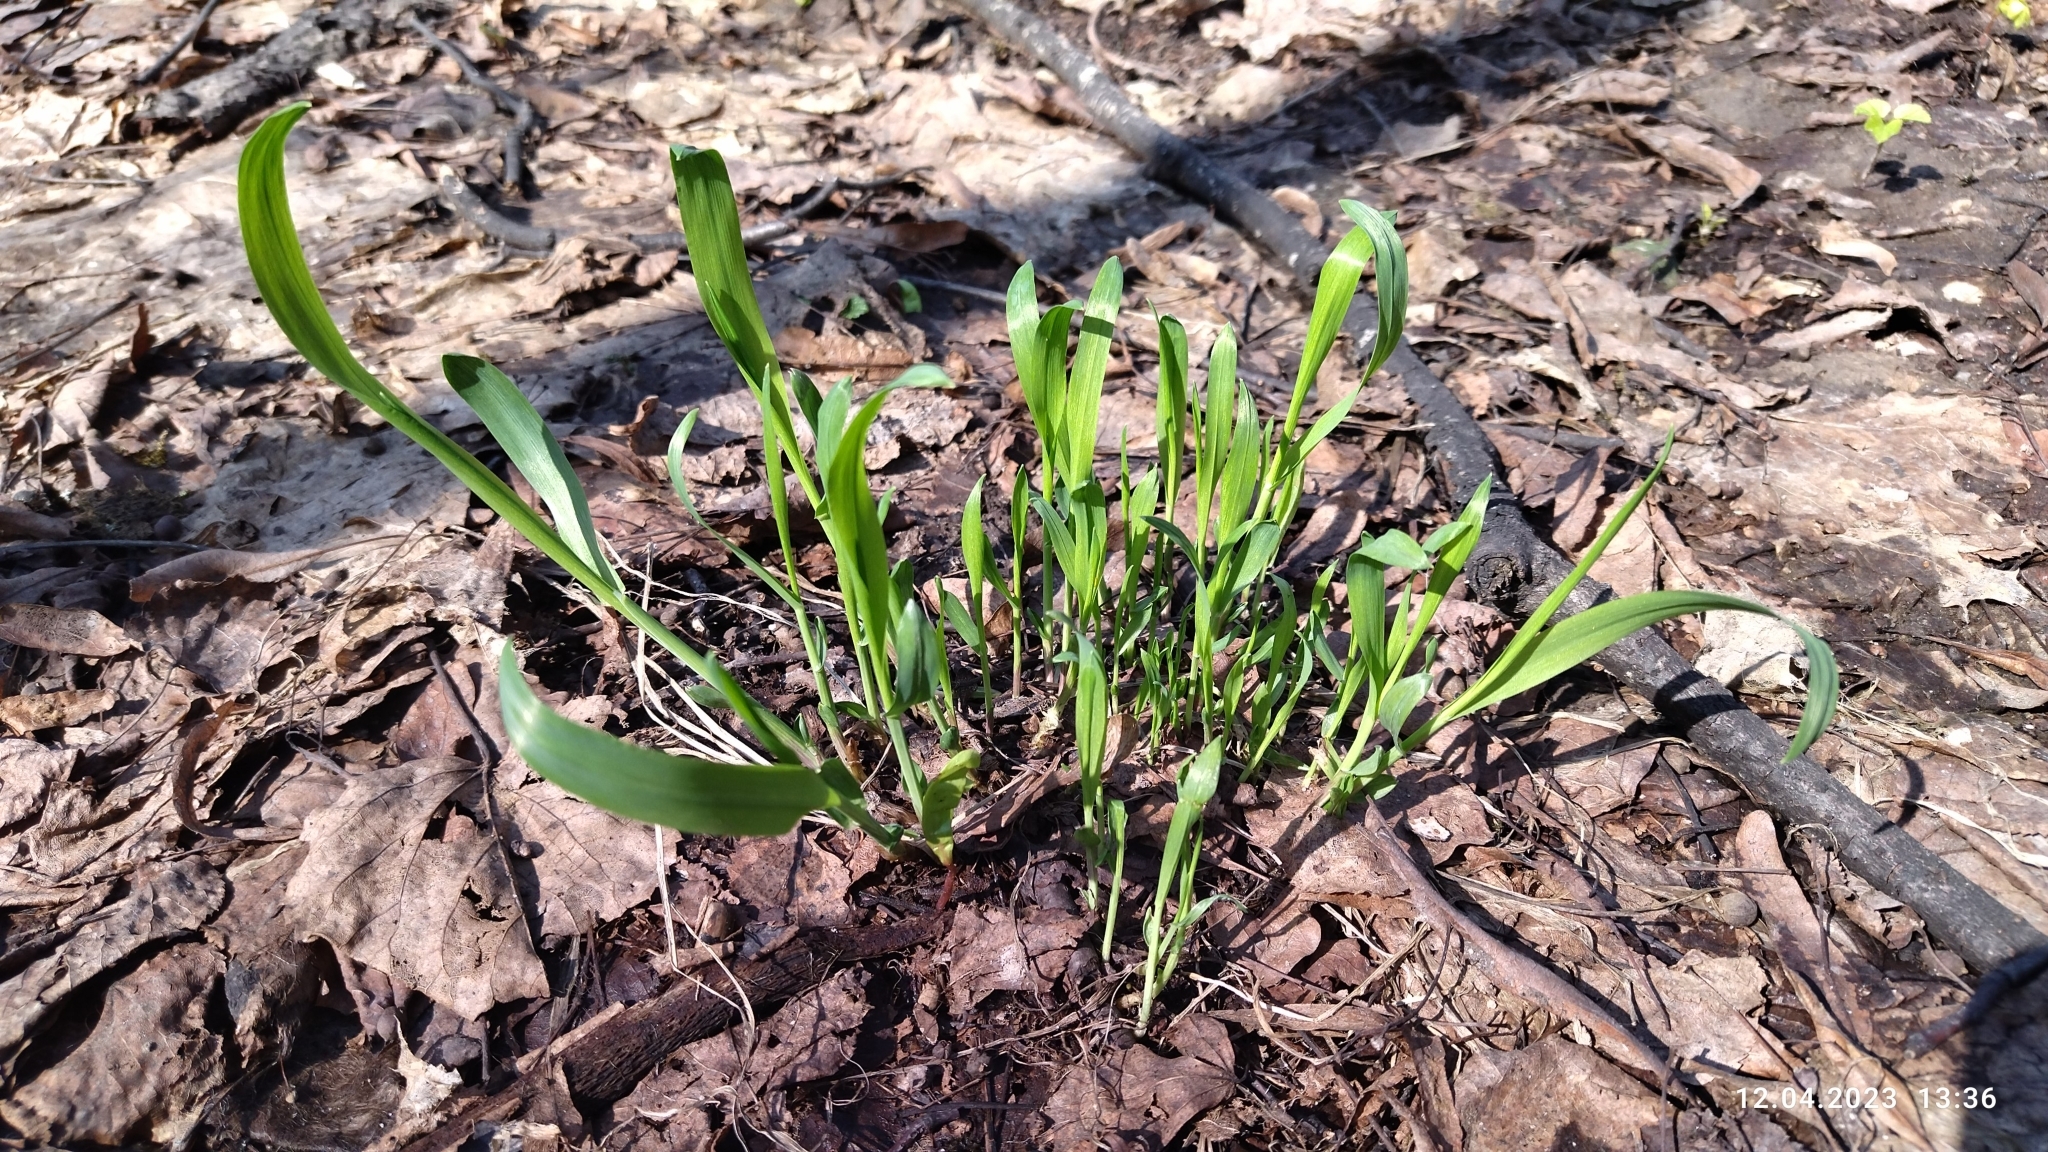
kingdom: Plantae
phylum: Tracheophyta
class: Liliopsida
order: Poales
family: Poaceae
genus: Milium
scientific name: Milium effusum
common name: Wood millet
